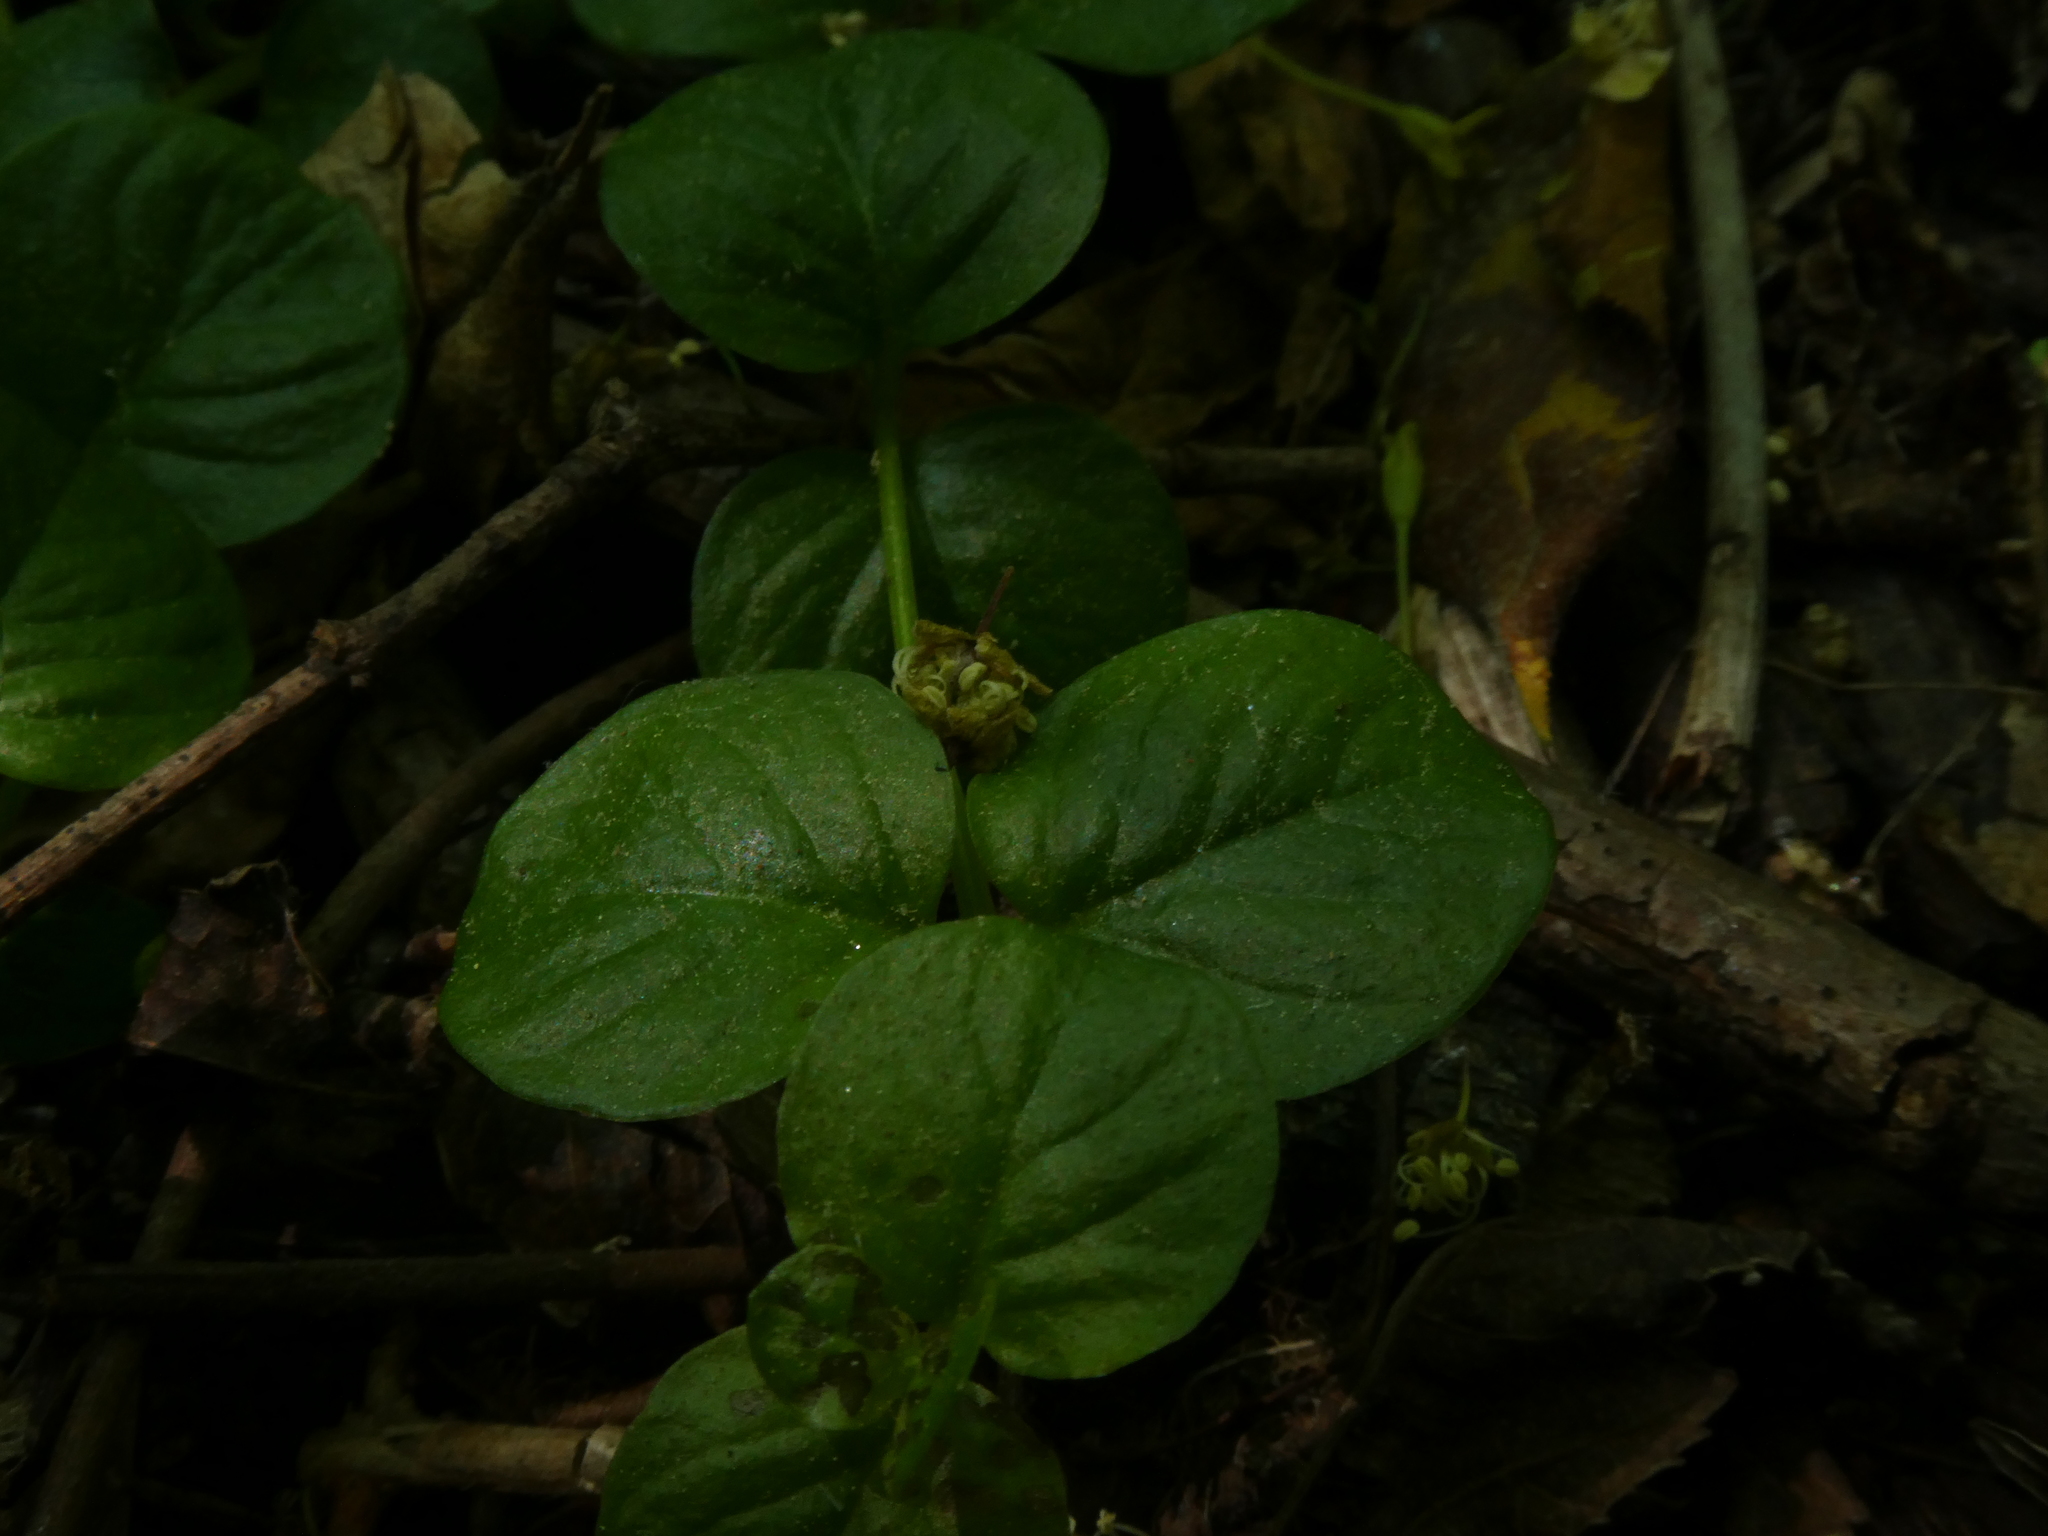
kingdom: Plantae
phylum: Tracheophyta
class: Magnoliopsida
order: Ericales
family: Primulaceae
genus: Lysimachia
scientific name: Lysimachia nummularia
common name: Moneywort
